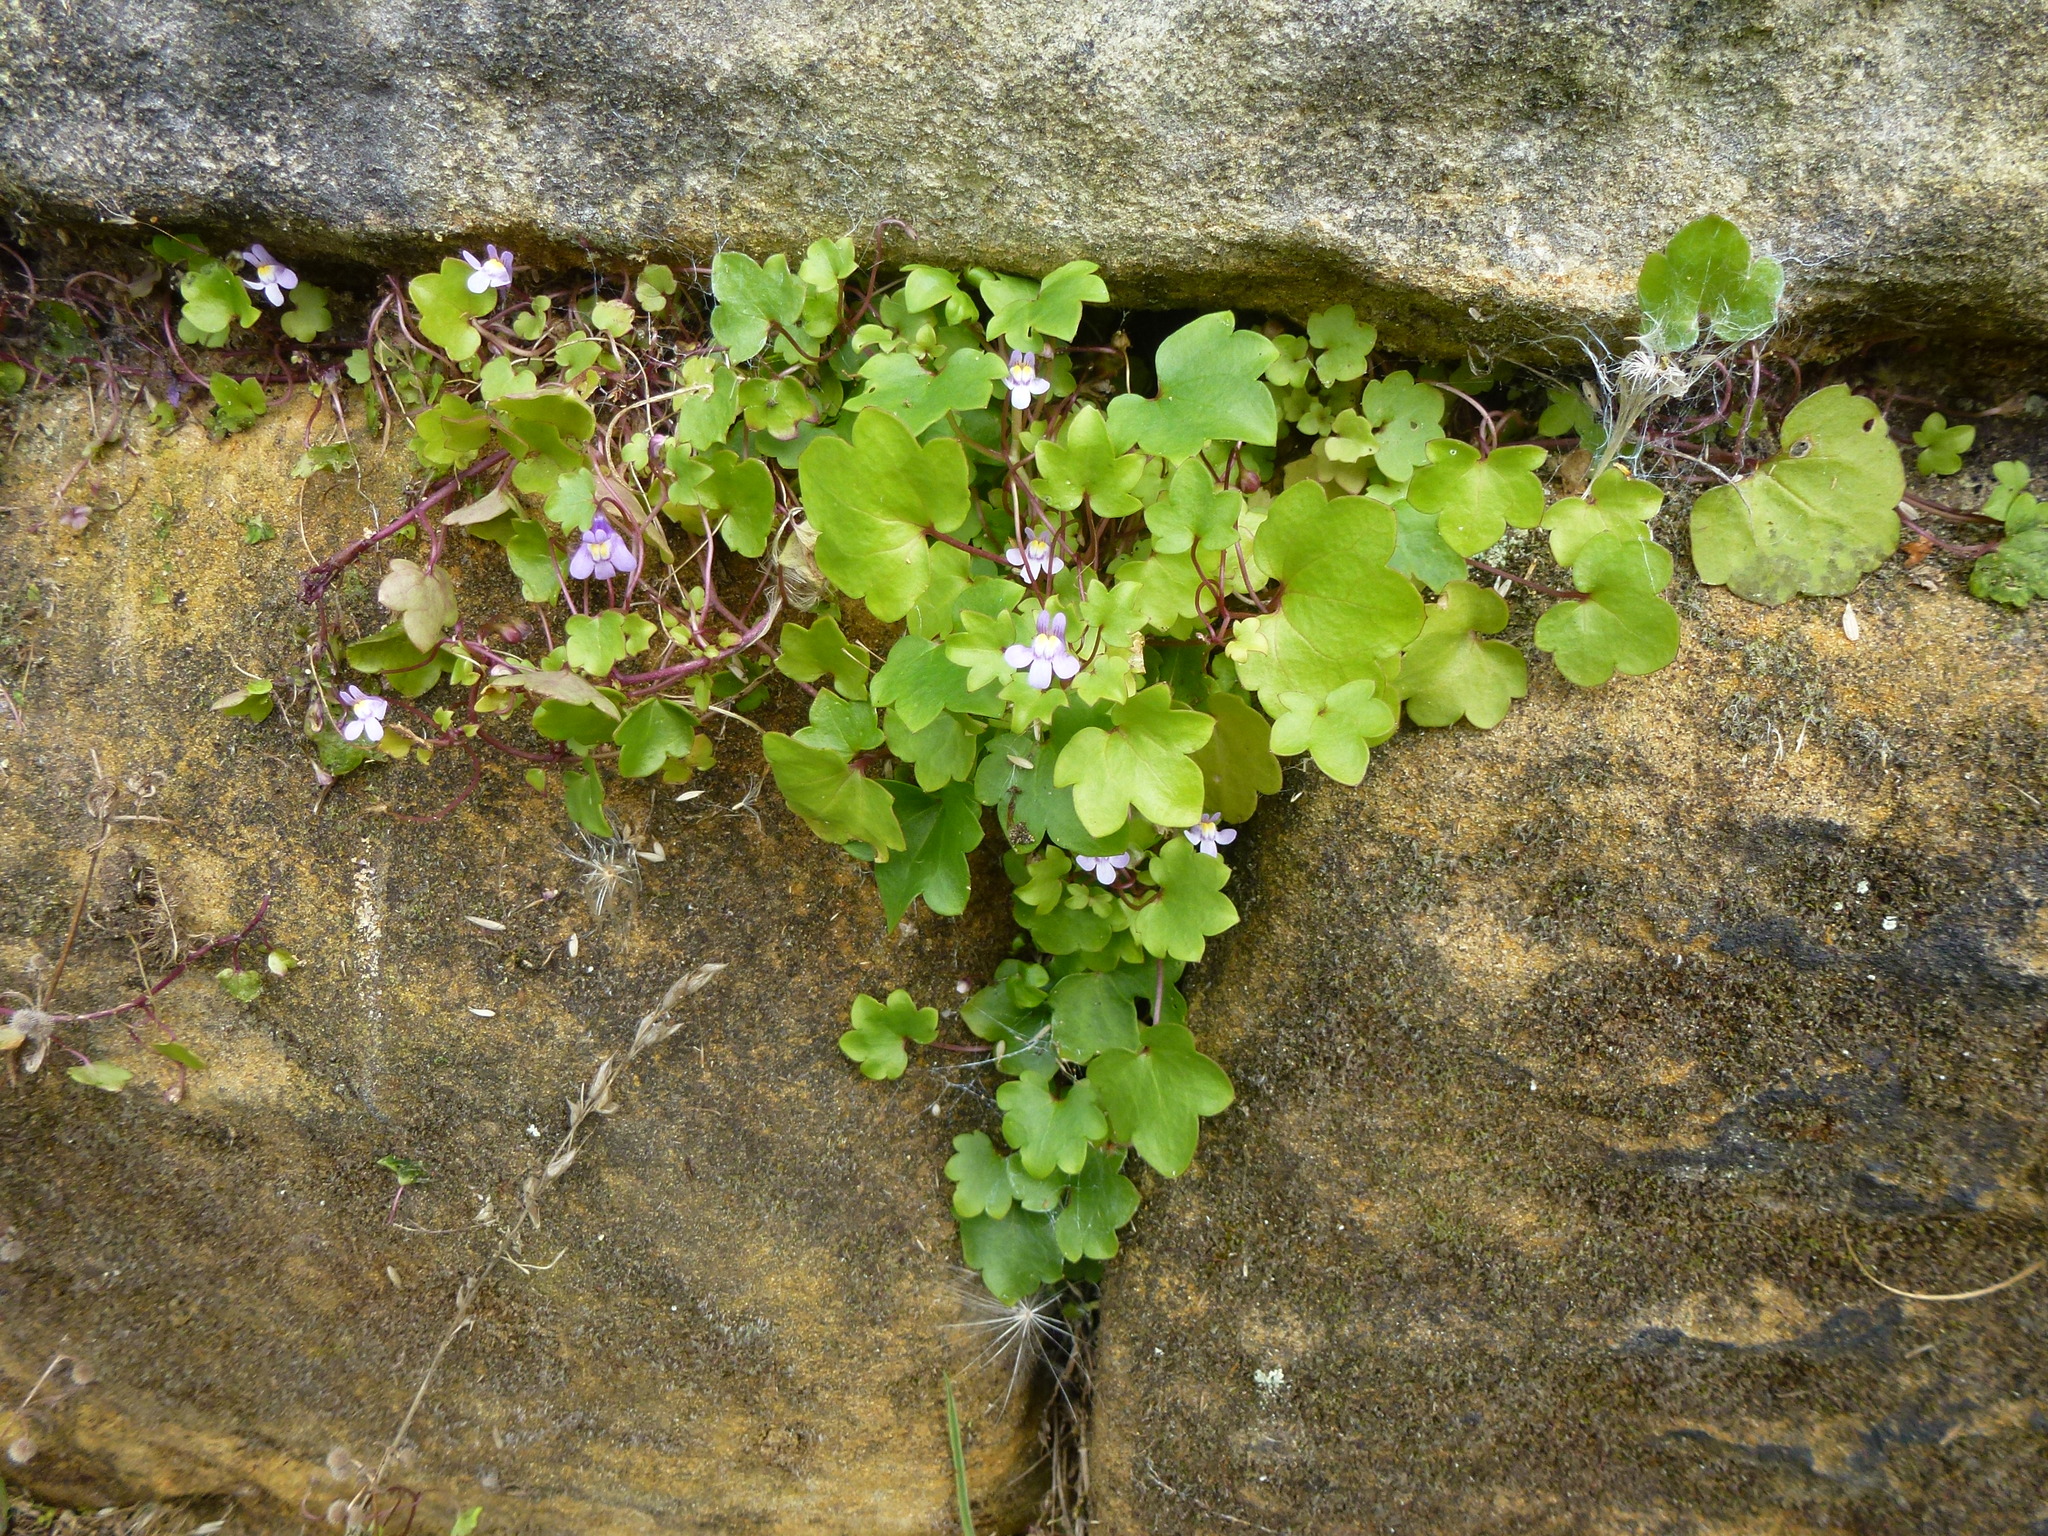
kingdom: Plantae
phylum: Tracheophyta
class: Magnoliopsida
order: Lamiales
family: Plantaginaceae
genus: Cymbalaria
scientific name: Cymbalaria muralis
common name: Ivy-leaved toadflax
